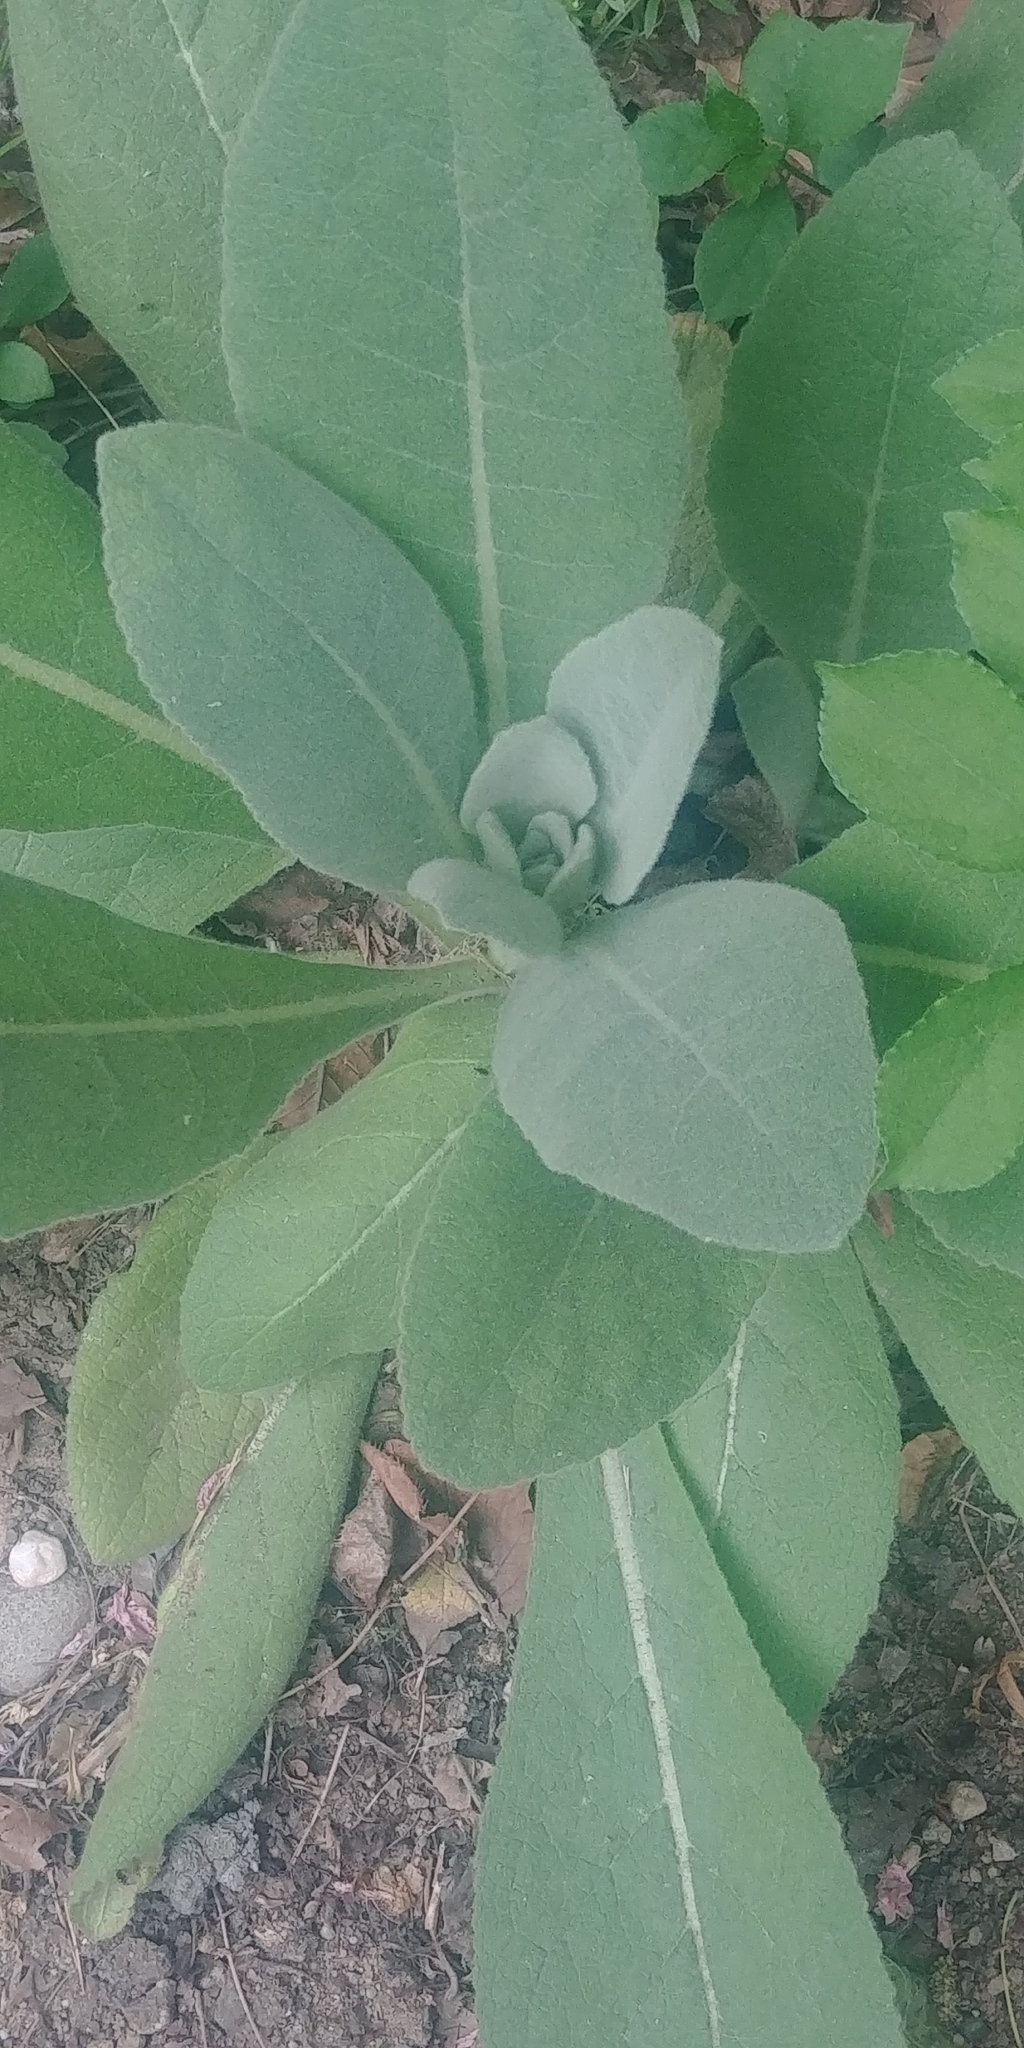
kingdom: Plantae
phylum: Tracheophyta
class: Magnoliopsida
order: Lamiales
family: Scrophulariaceae
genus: Verbascum
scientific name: Verbascum thapsus
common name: Common mullein
